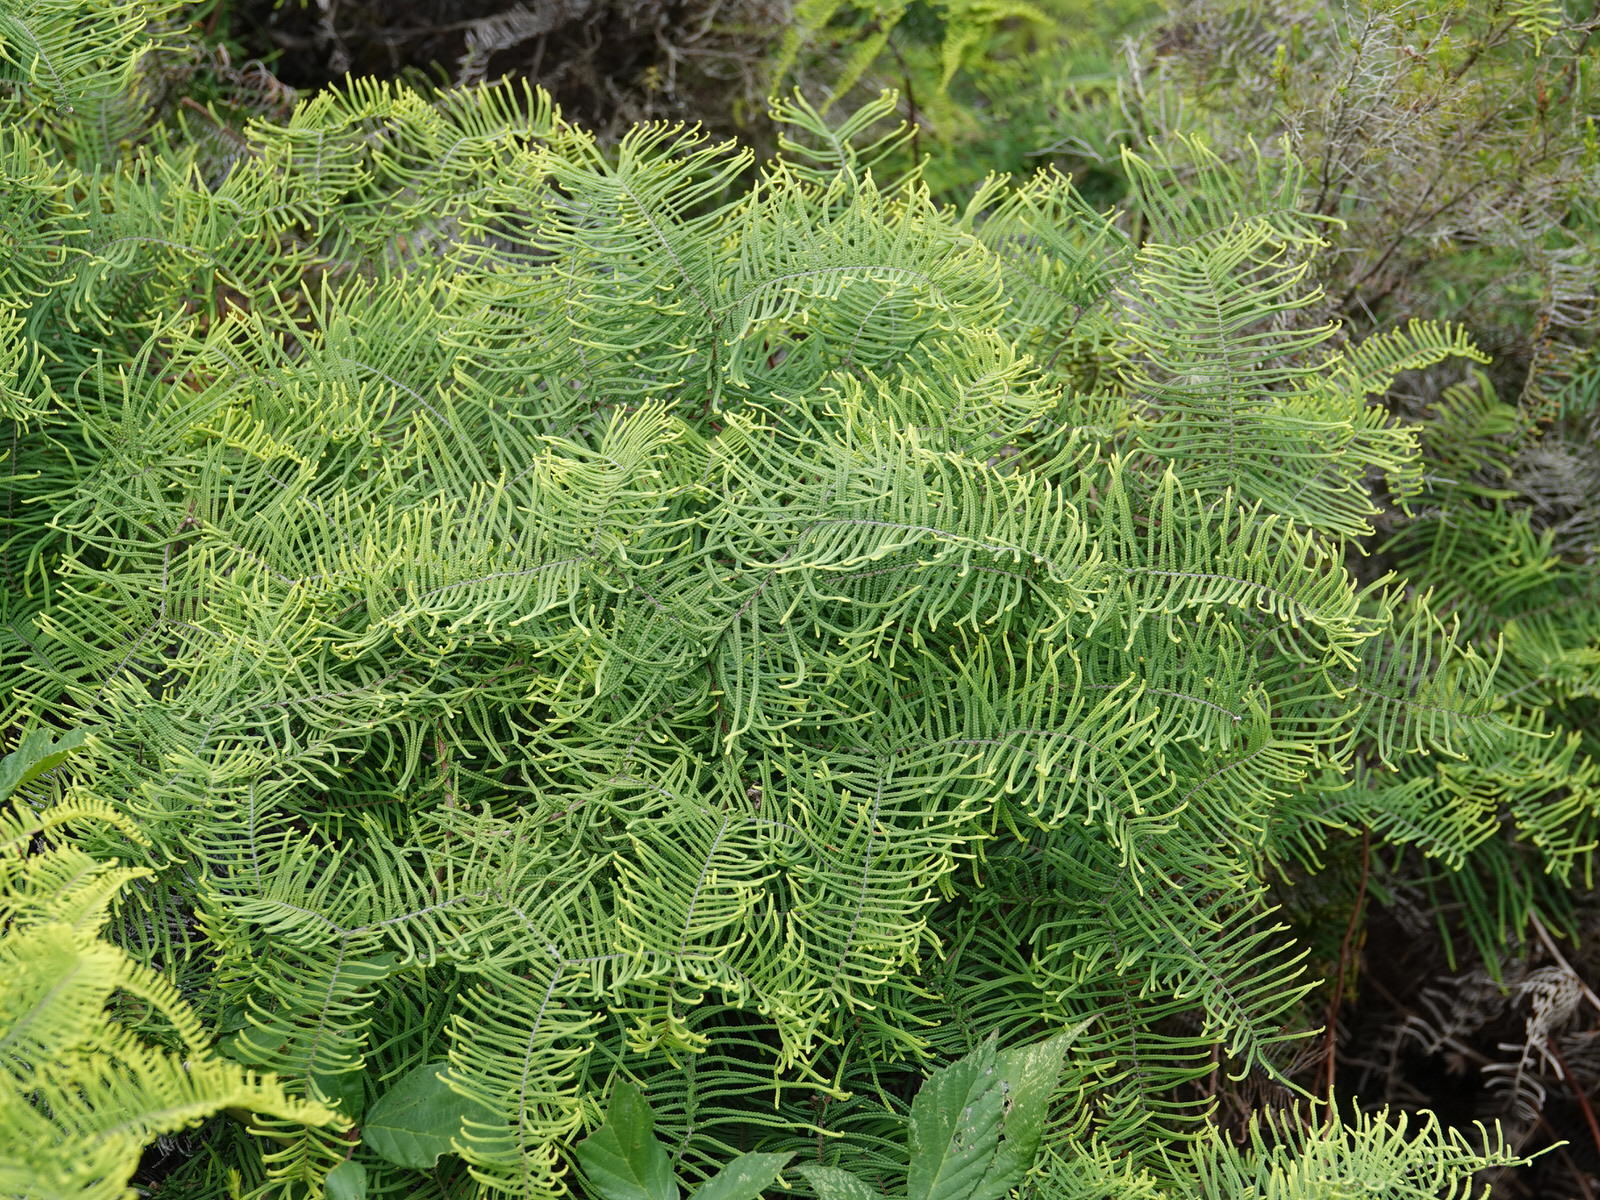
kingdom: Plantae
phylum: Tracheophyta
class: Polypodiopsida
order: Gleicheniales
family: Gleicheniaceae
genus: Gleichenia
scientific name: Gleichenia dicarpa
